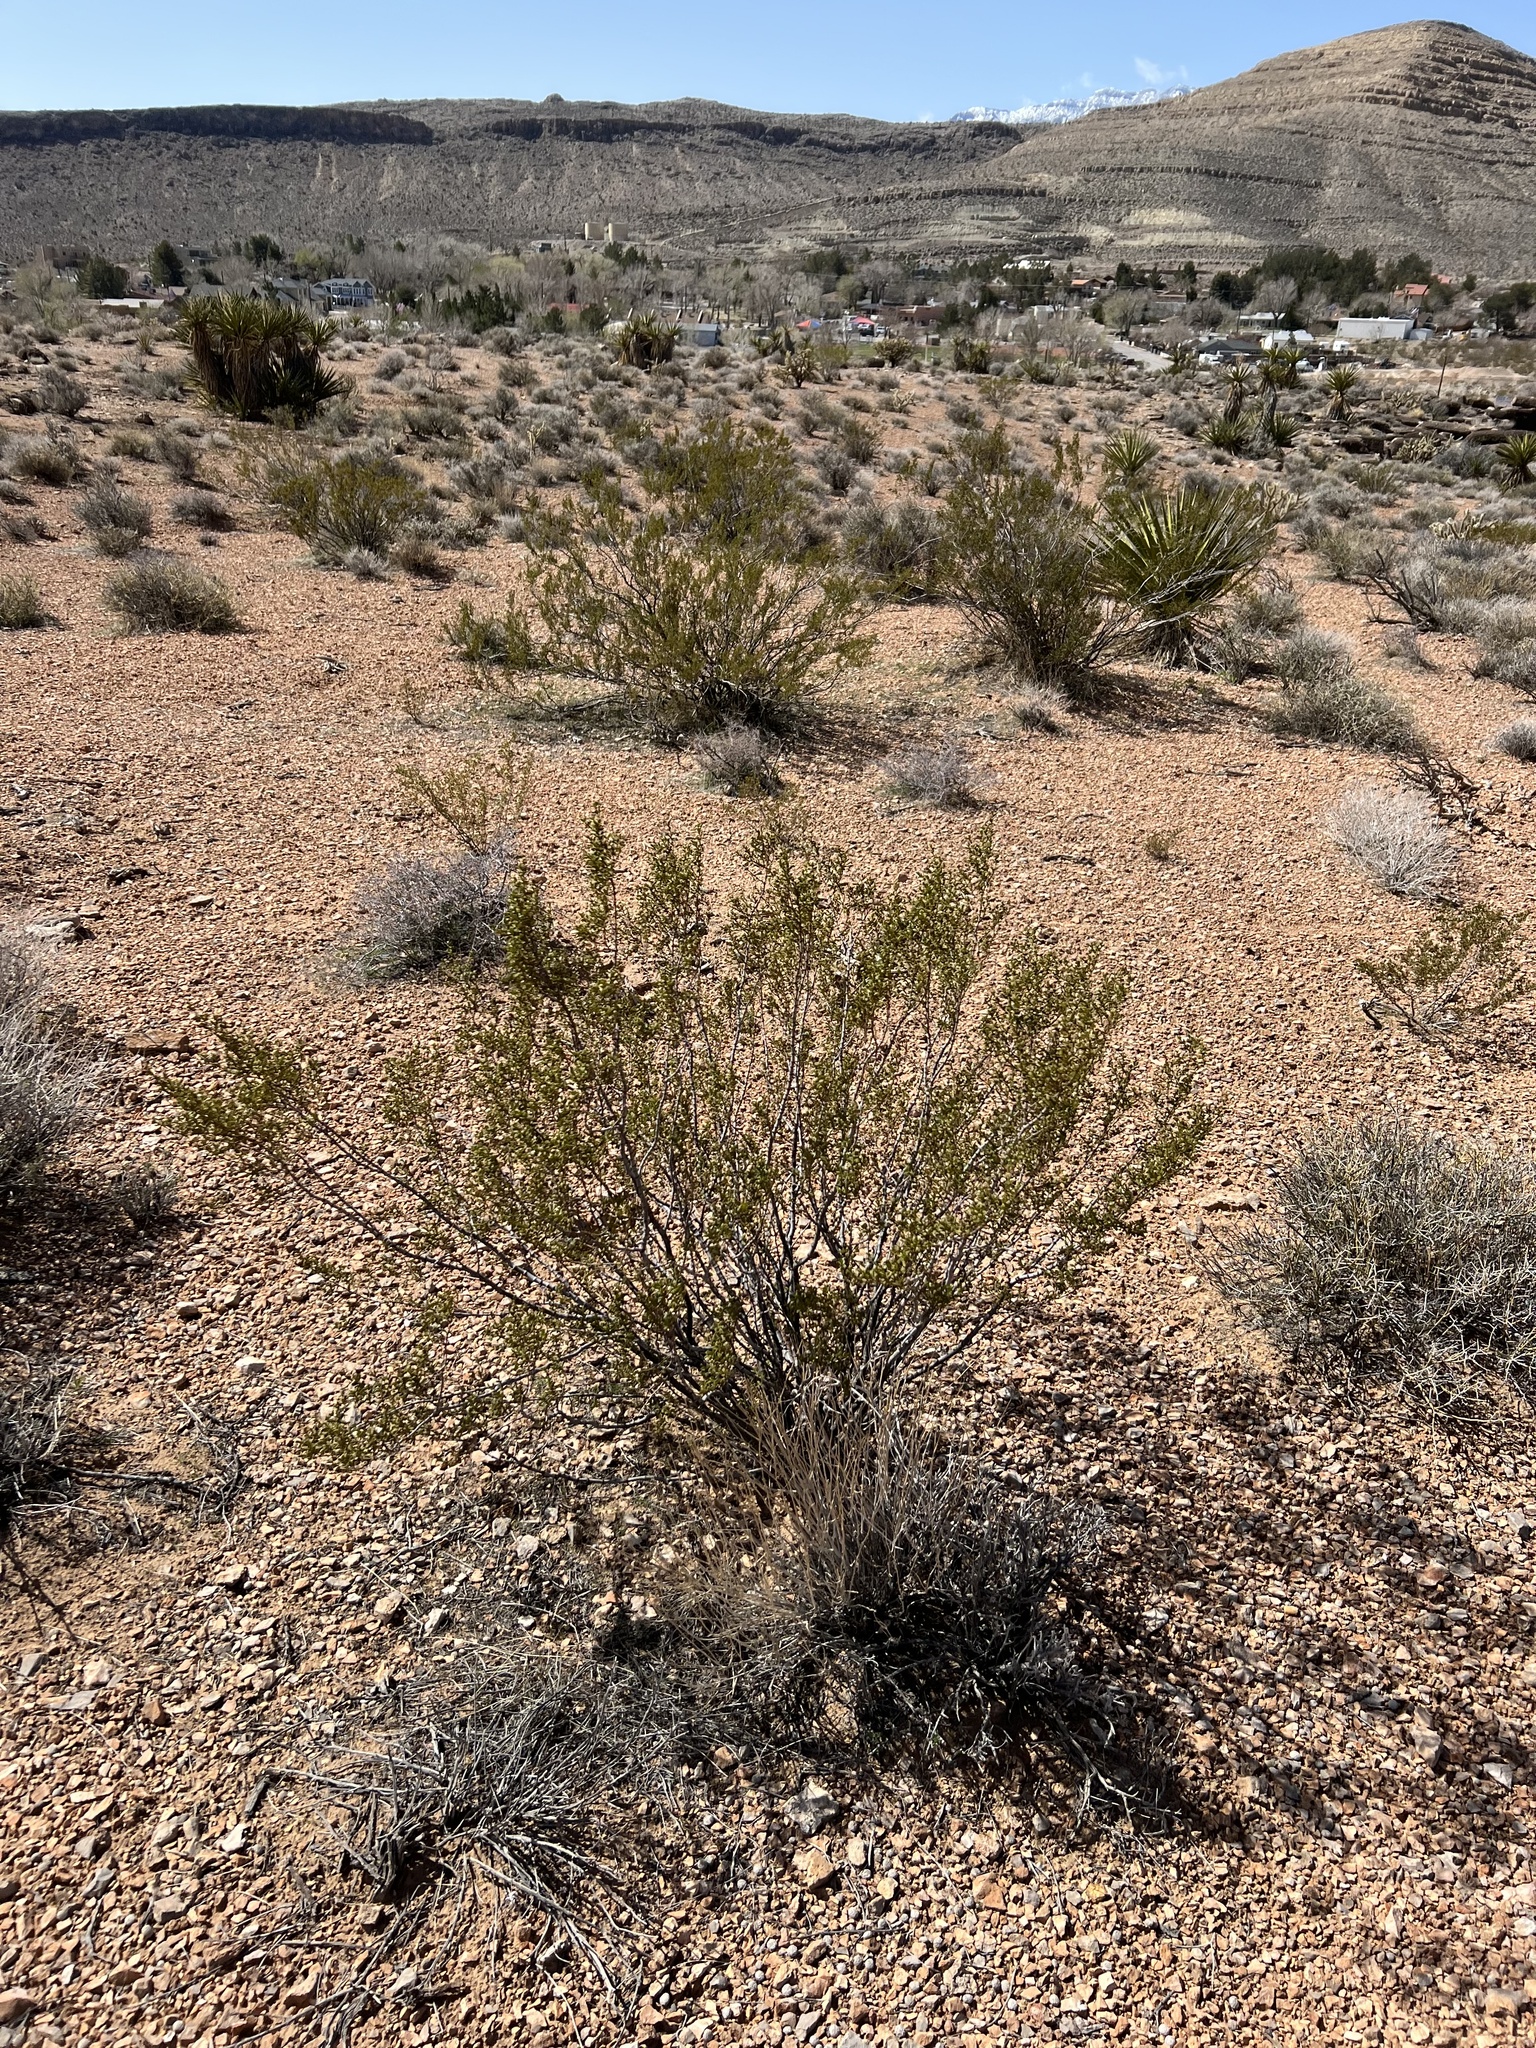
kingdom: Plantae
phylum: Tracheophyta
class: Magnoliopsida
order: Zygophyllales
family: Zygophyllaceae
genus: Larrea
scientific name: Larrea tridentata
